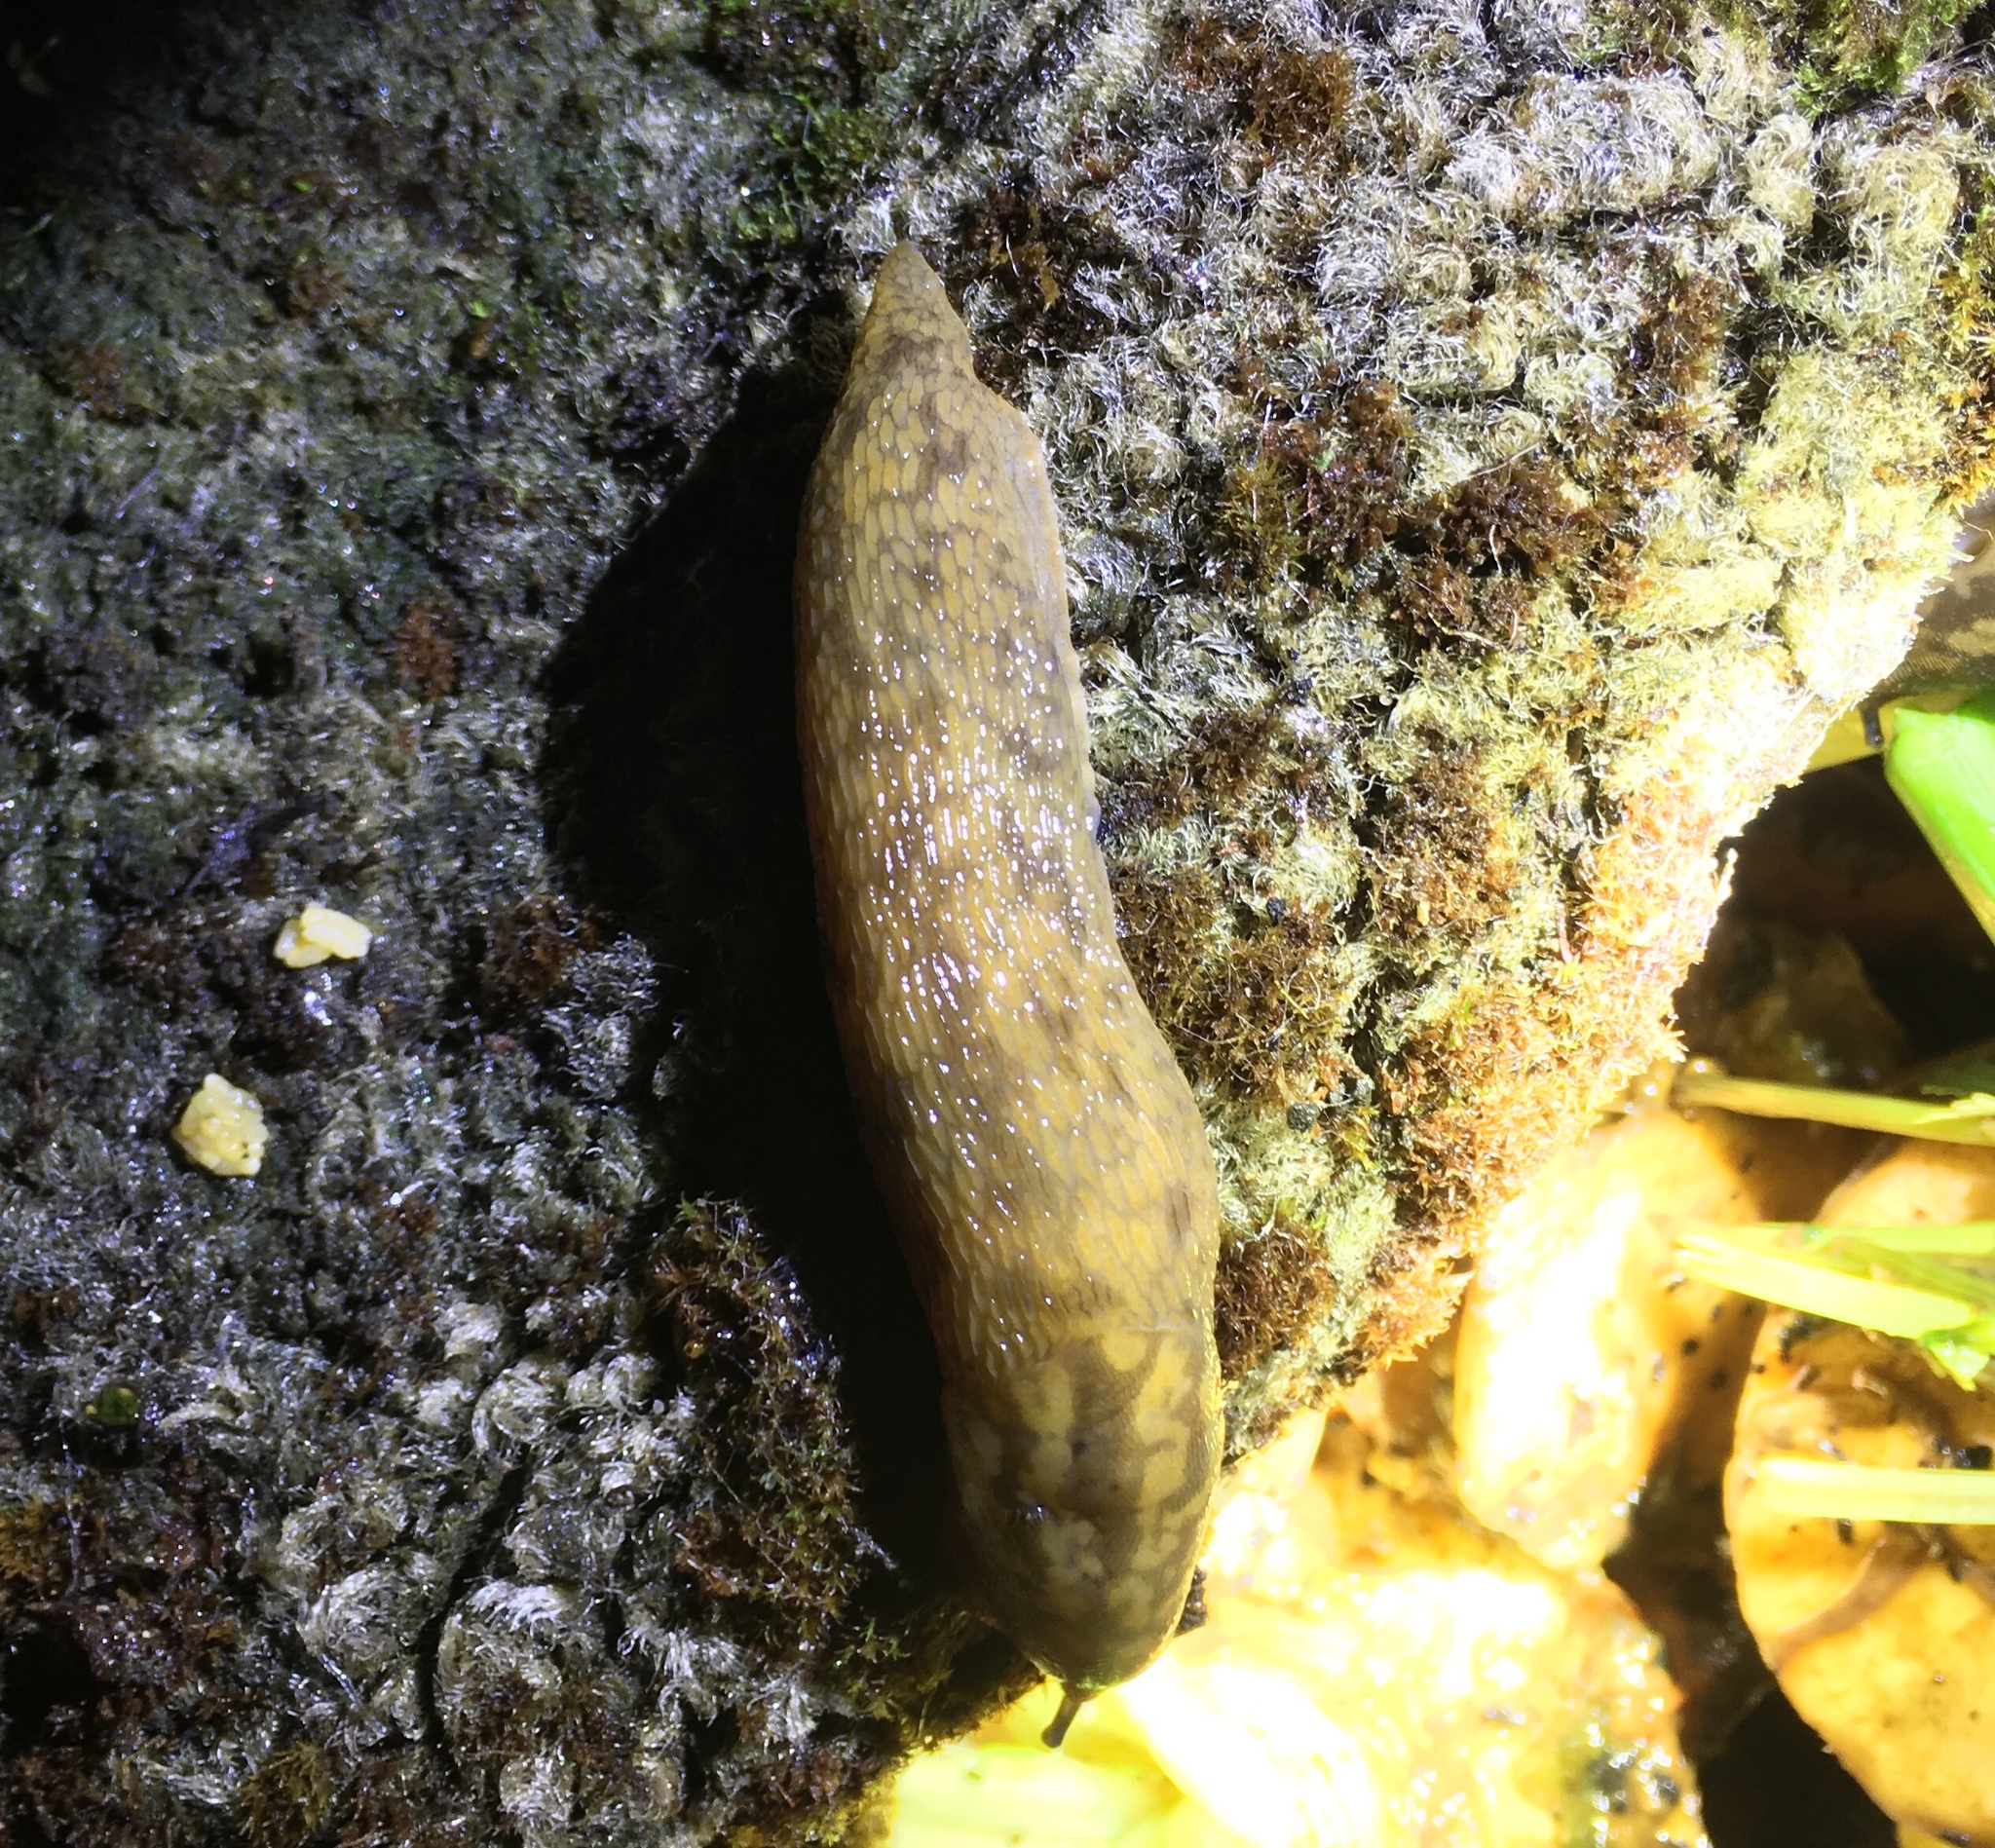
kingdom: Animalia
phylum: Mollusca
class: Gastropoda
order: Stylommatophora
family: Limacidae
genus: Limacus
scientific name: Limacus maculatus
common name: Irish yellow slug
